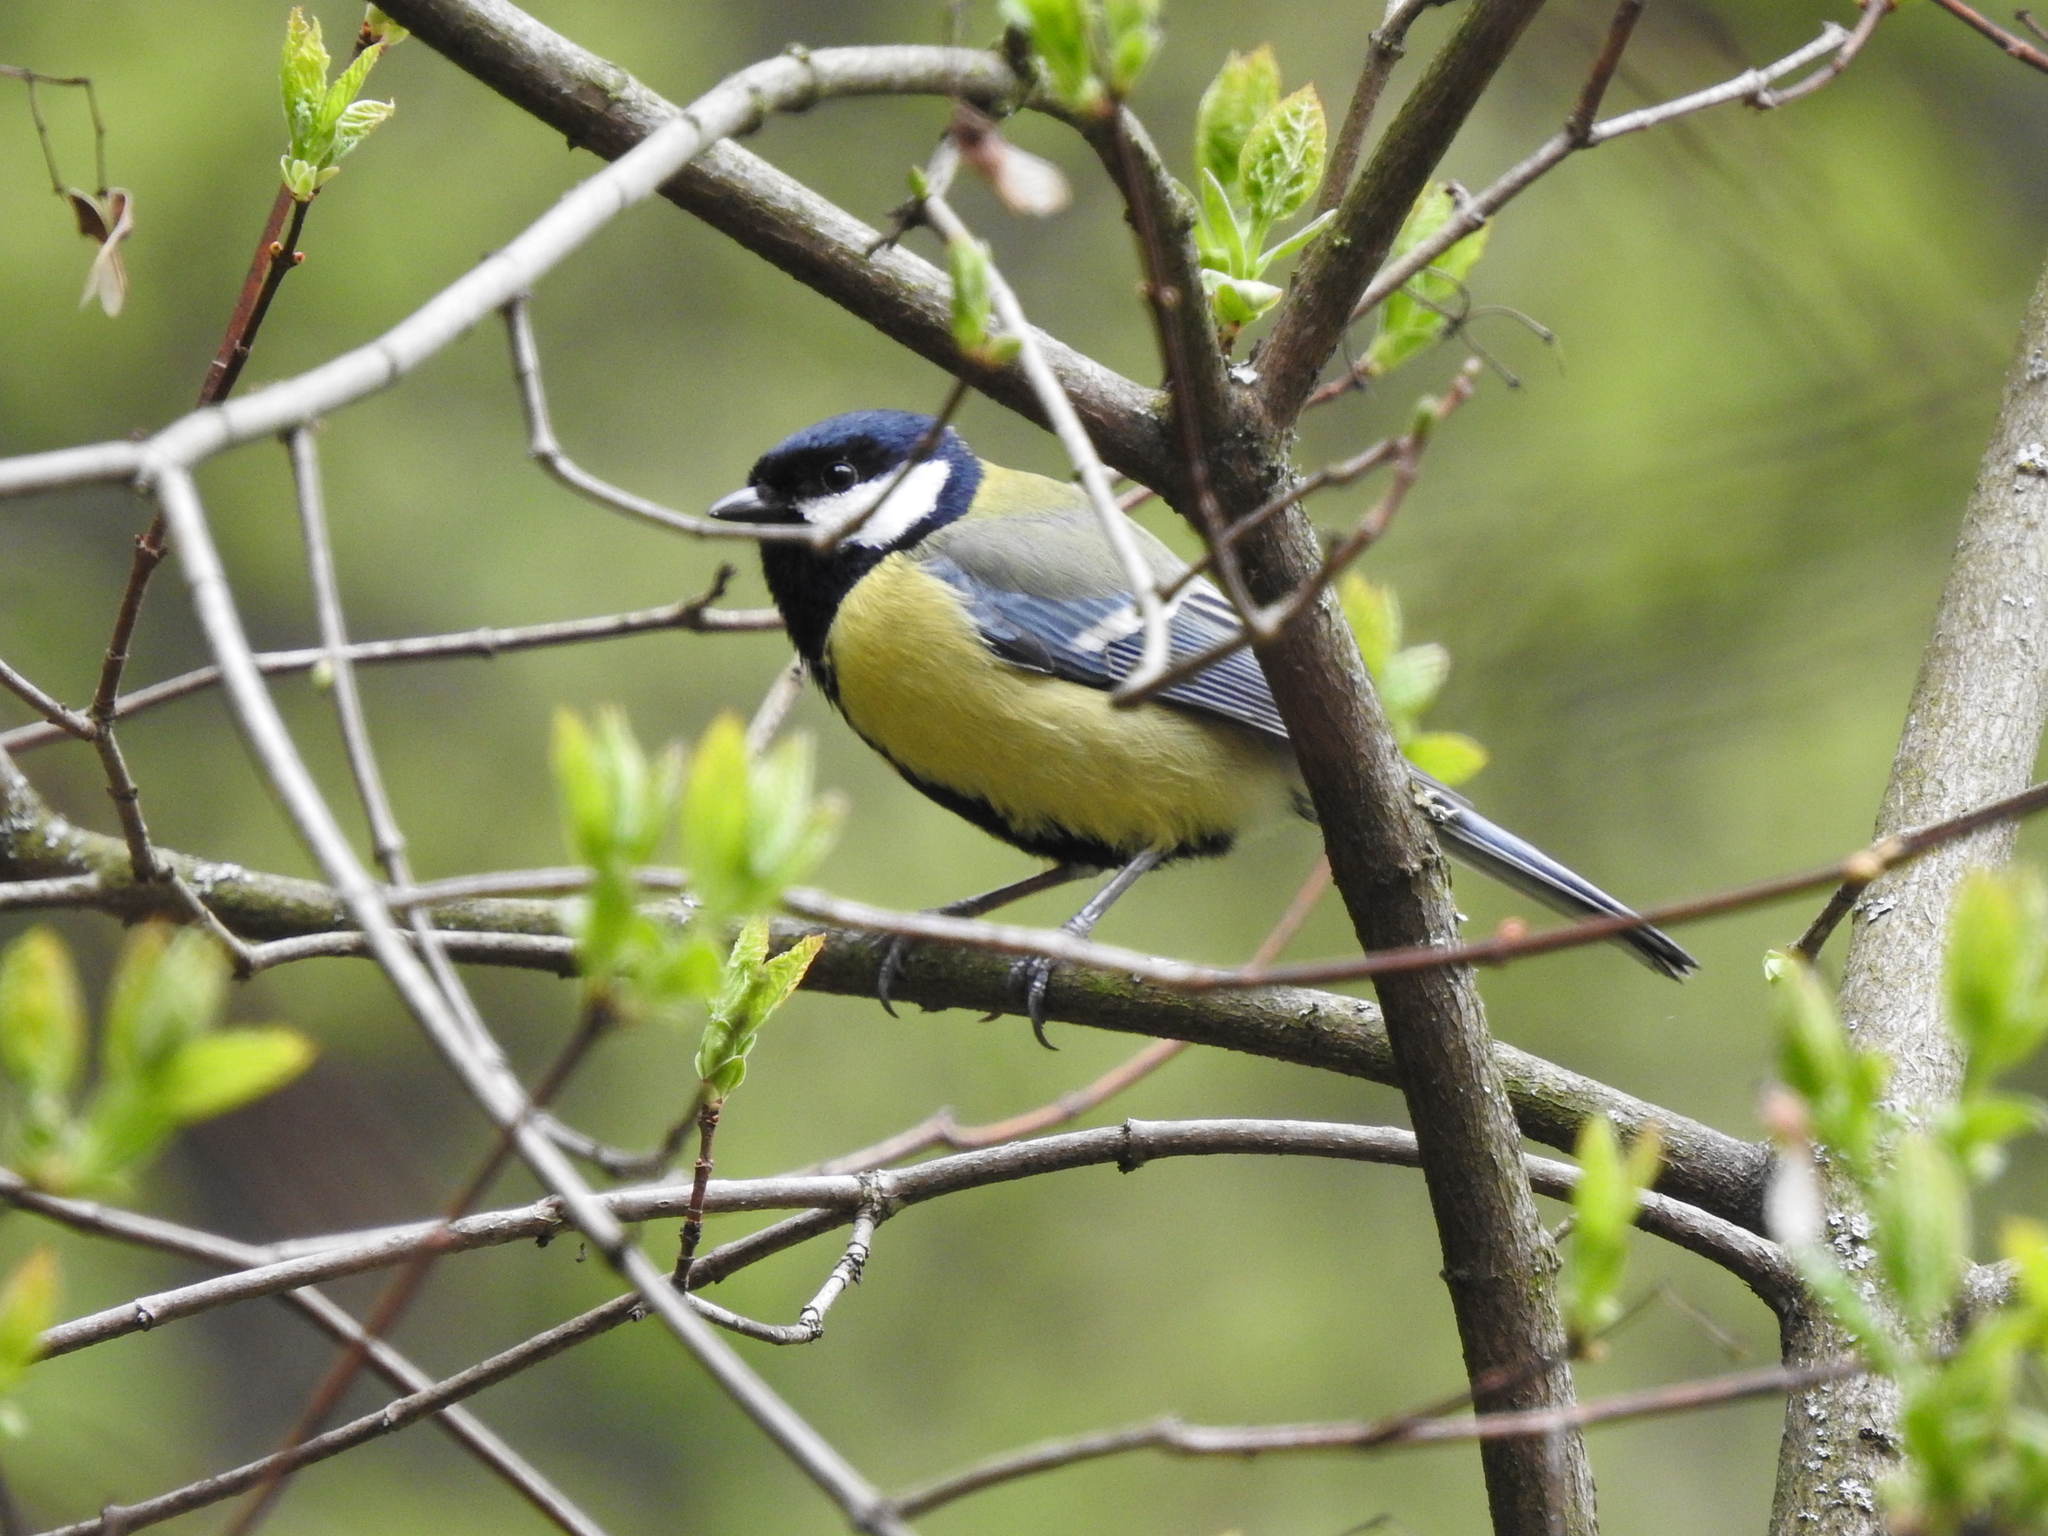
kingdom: Animalia
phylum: Chordata
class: Aves
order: Passeriformes
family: Paridae
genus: Parus
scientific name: Parus major
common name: Great tit
